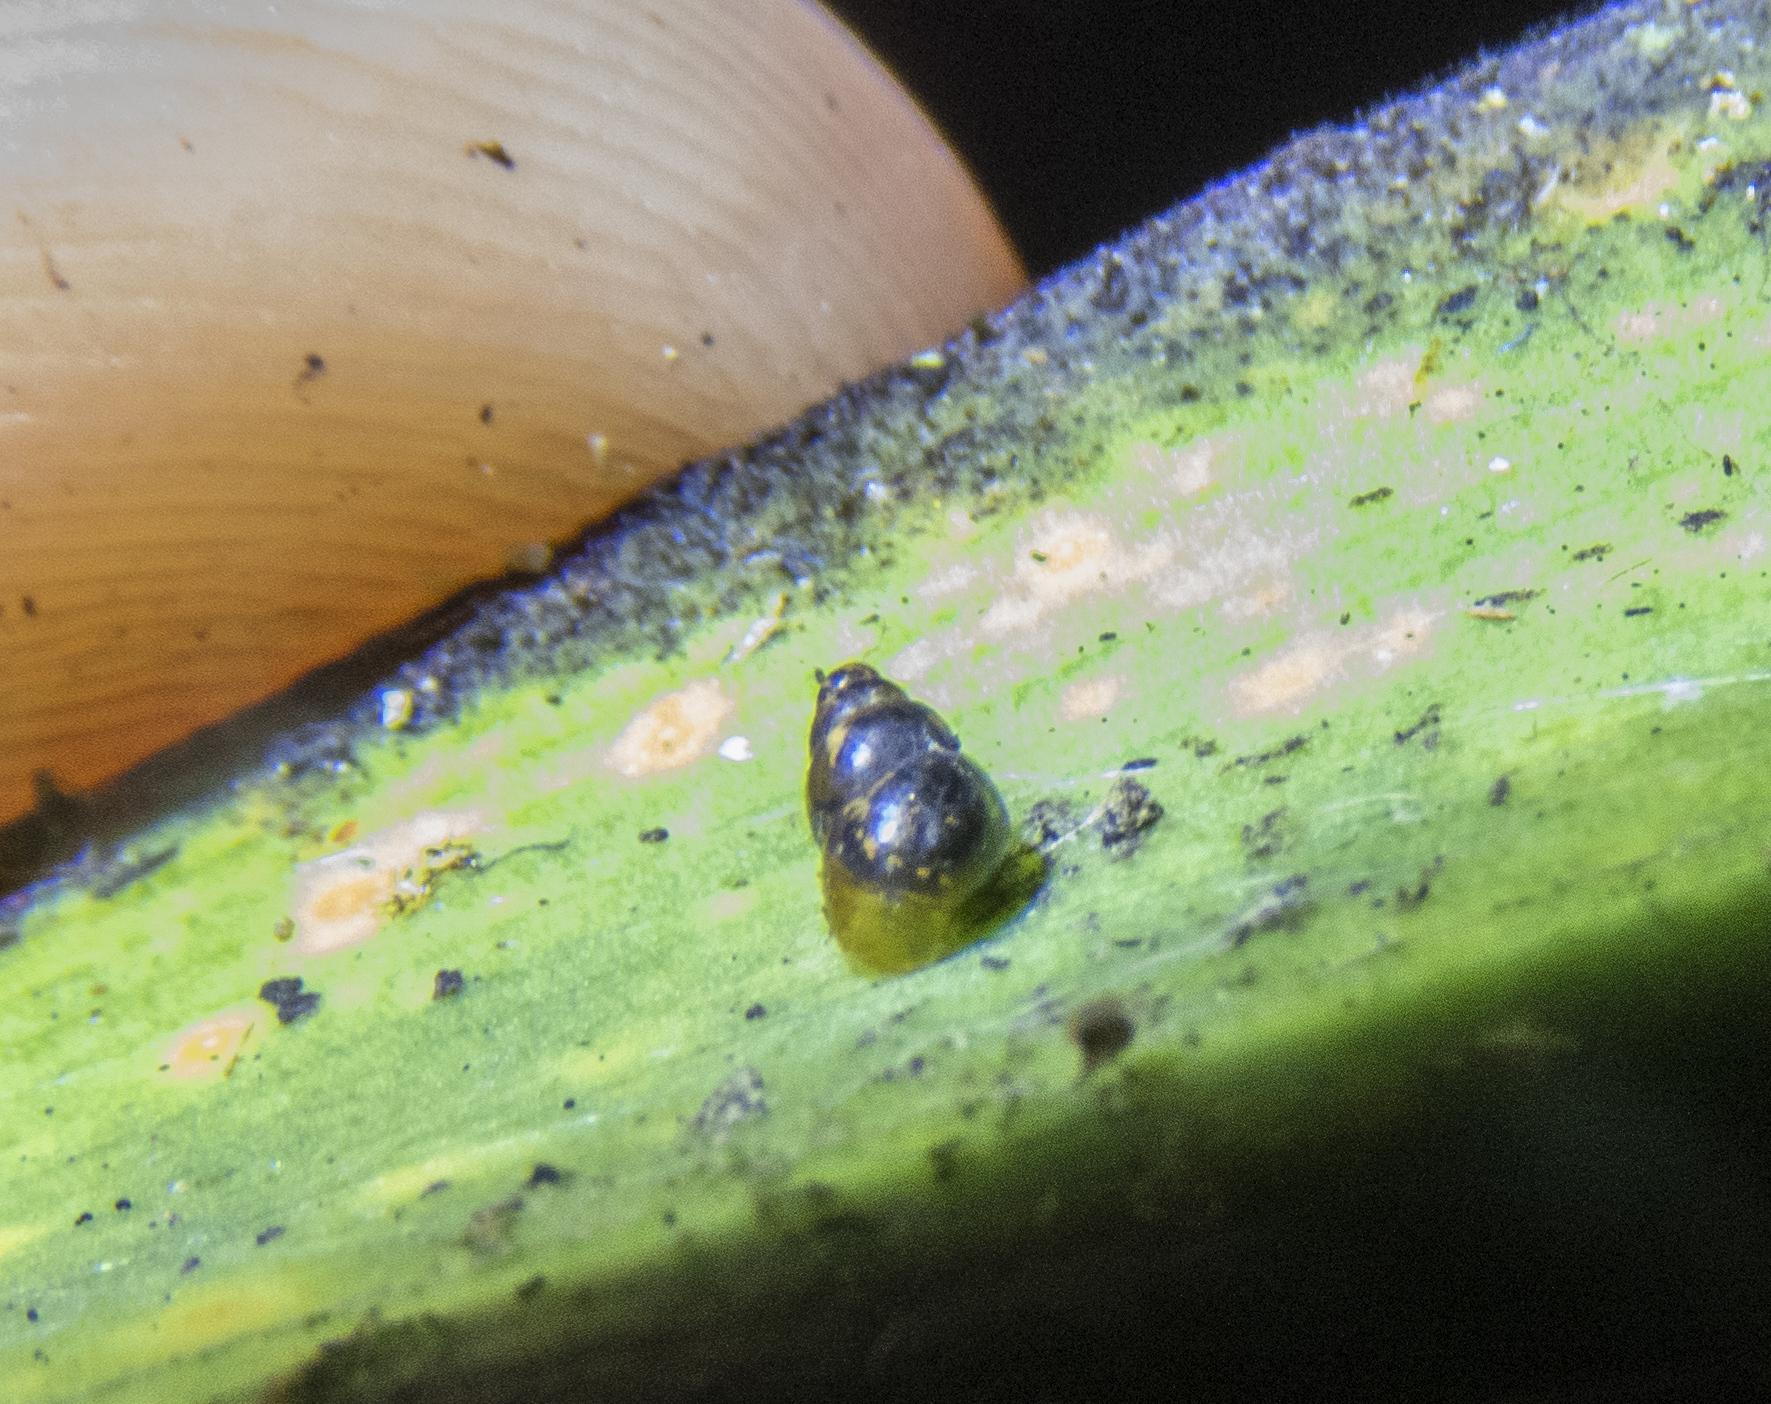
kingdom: Animalia
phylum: Mollusca
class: Gastropoda
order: Stylommatophora
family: Achatinellidae
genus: Tornatellinops
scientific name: Tornatellinops novoseelandicus
